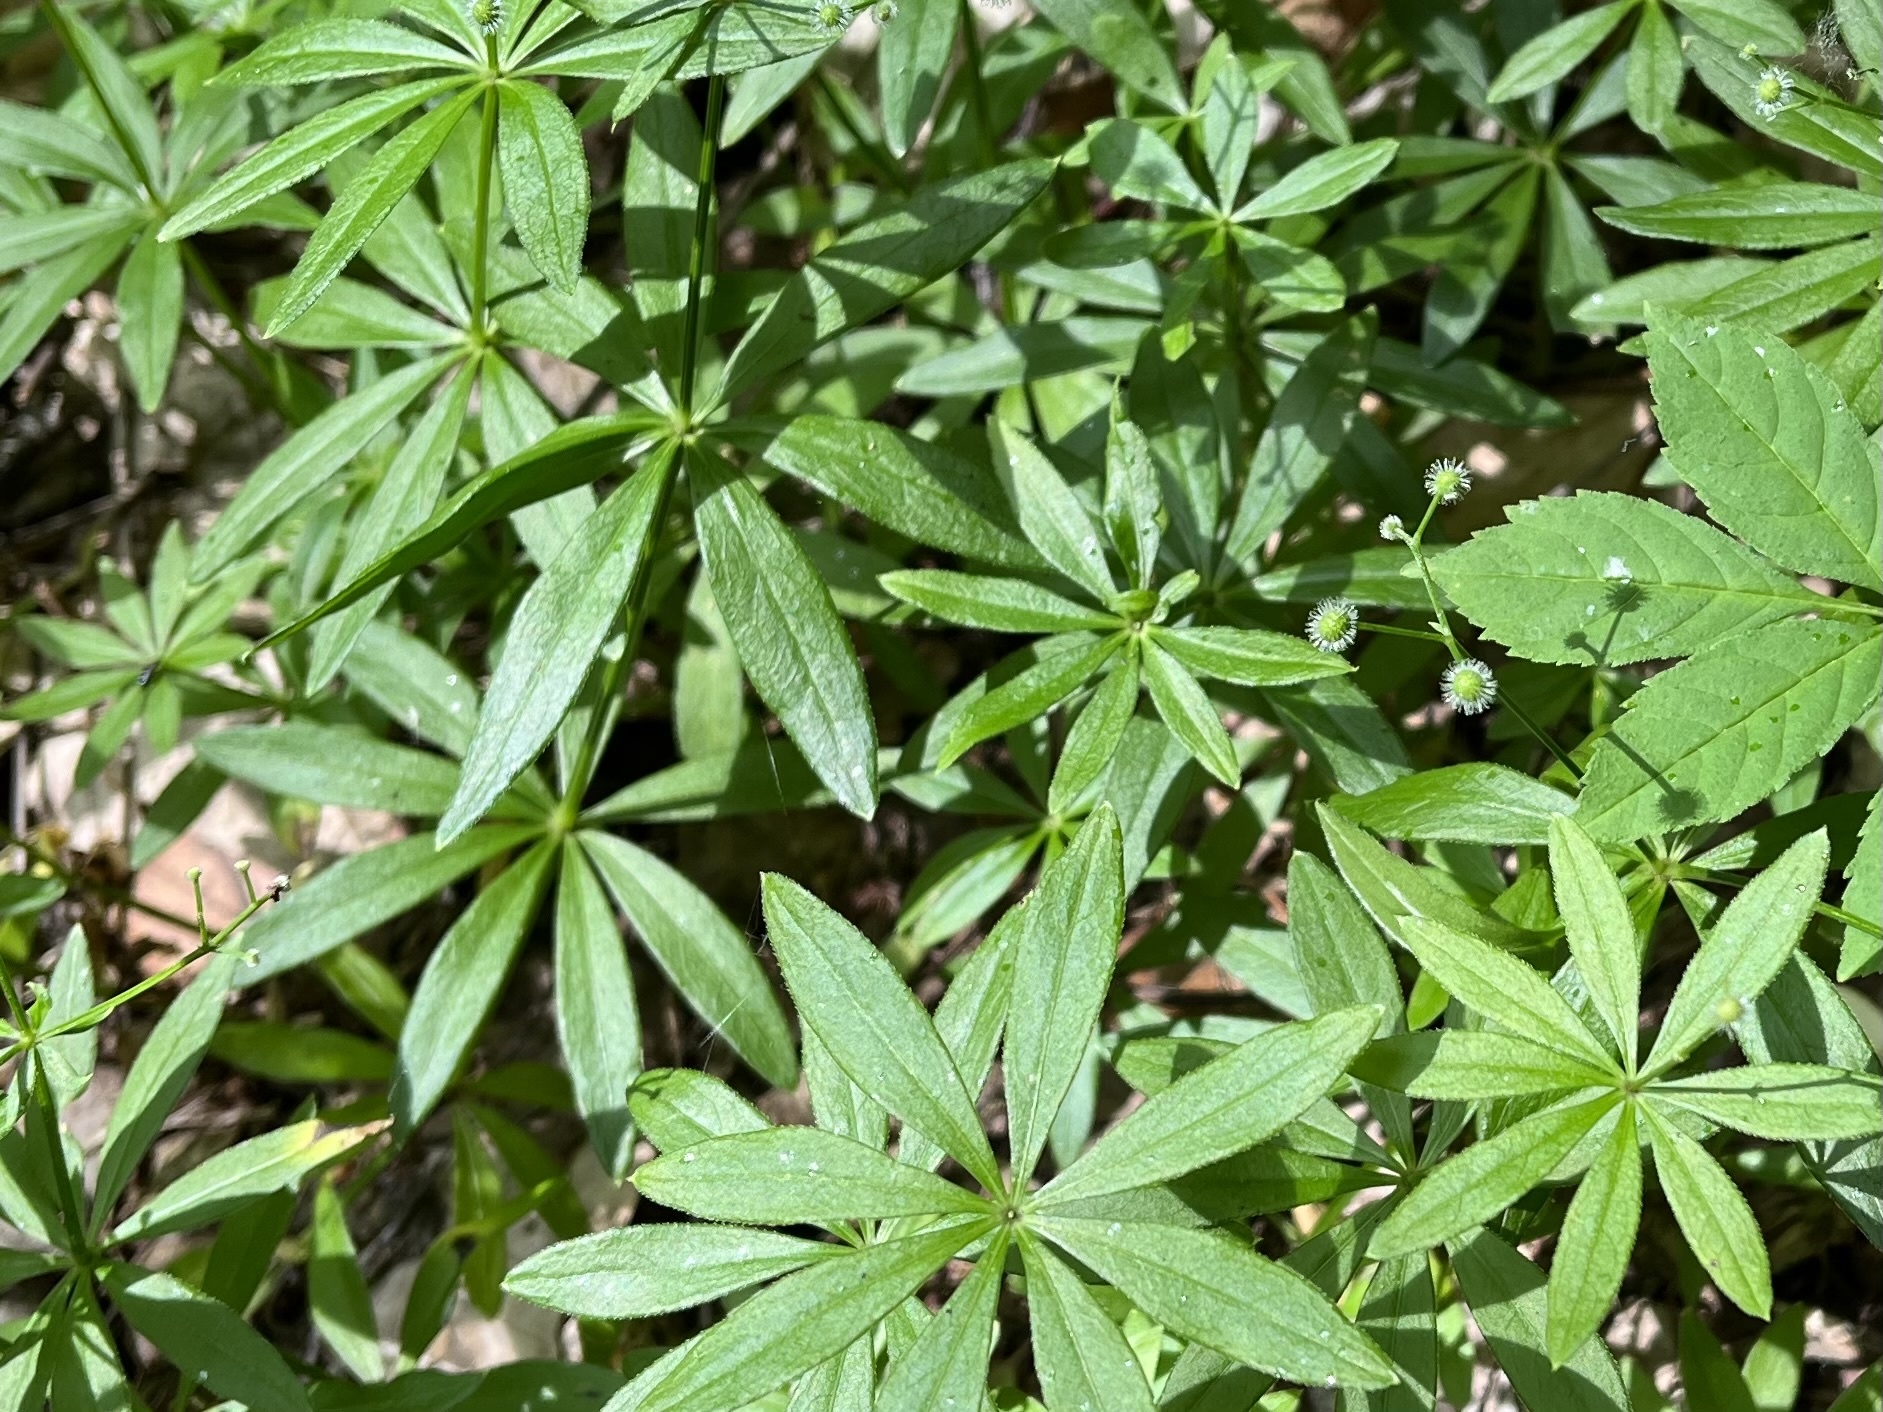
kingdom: Plantae
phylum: Tracheophyta
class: Magnoliopsida
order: Gentianales
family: Rubiaceae
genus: Galium
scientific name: Galium odoratum
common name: Sweet woodruff
